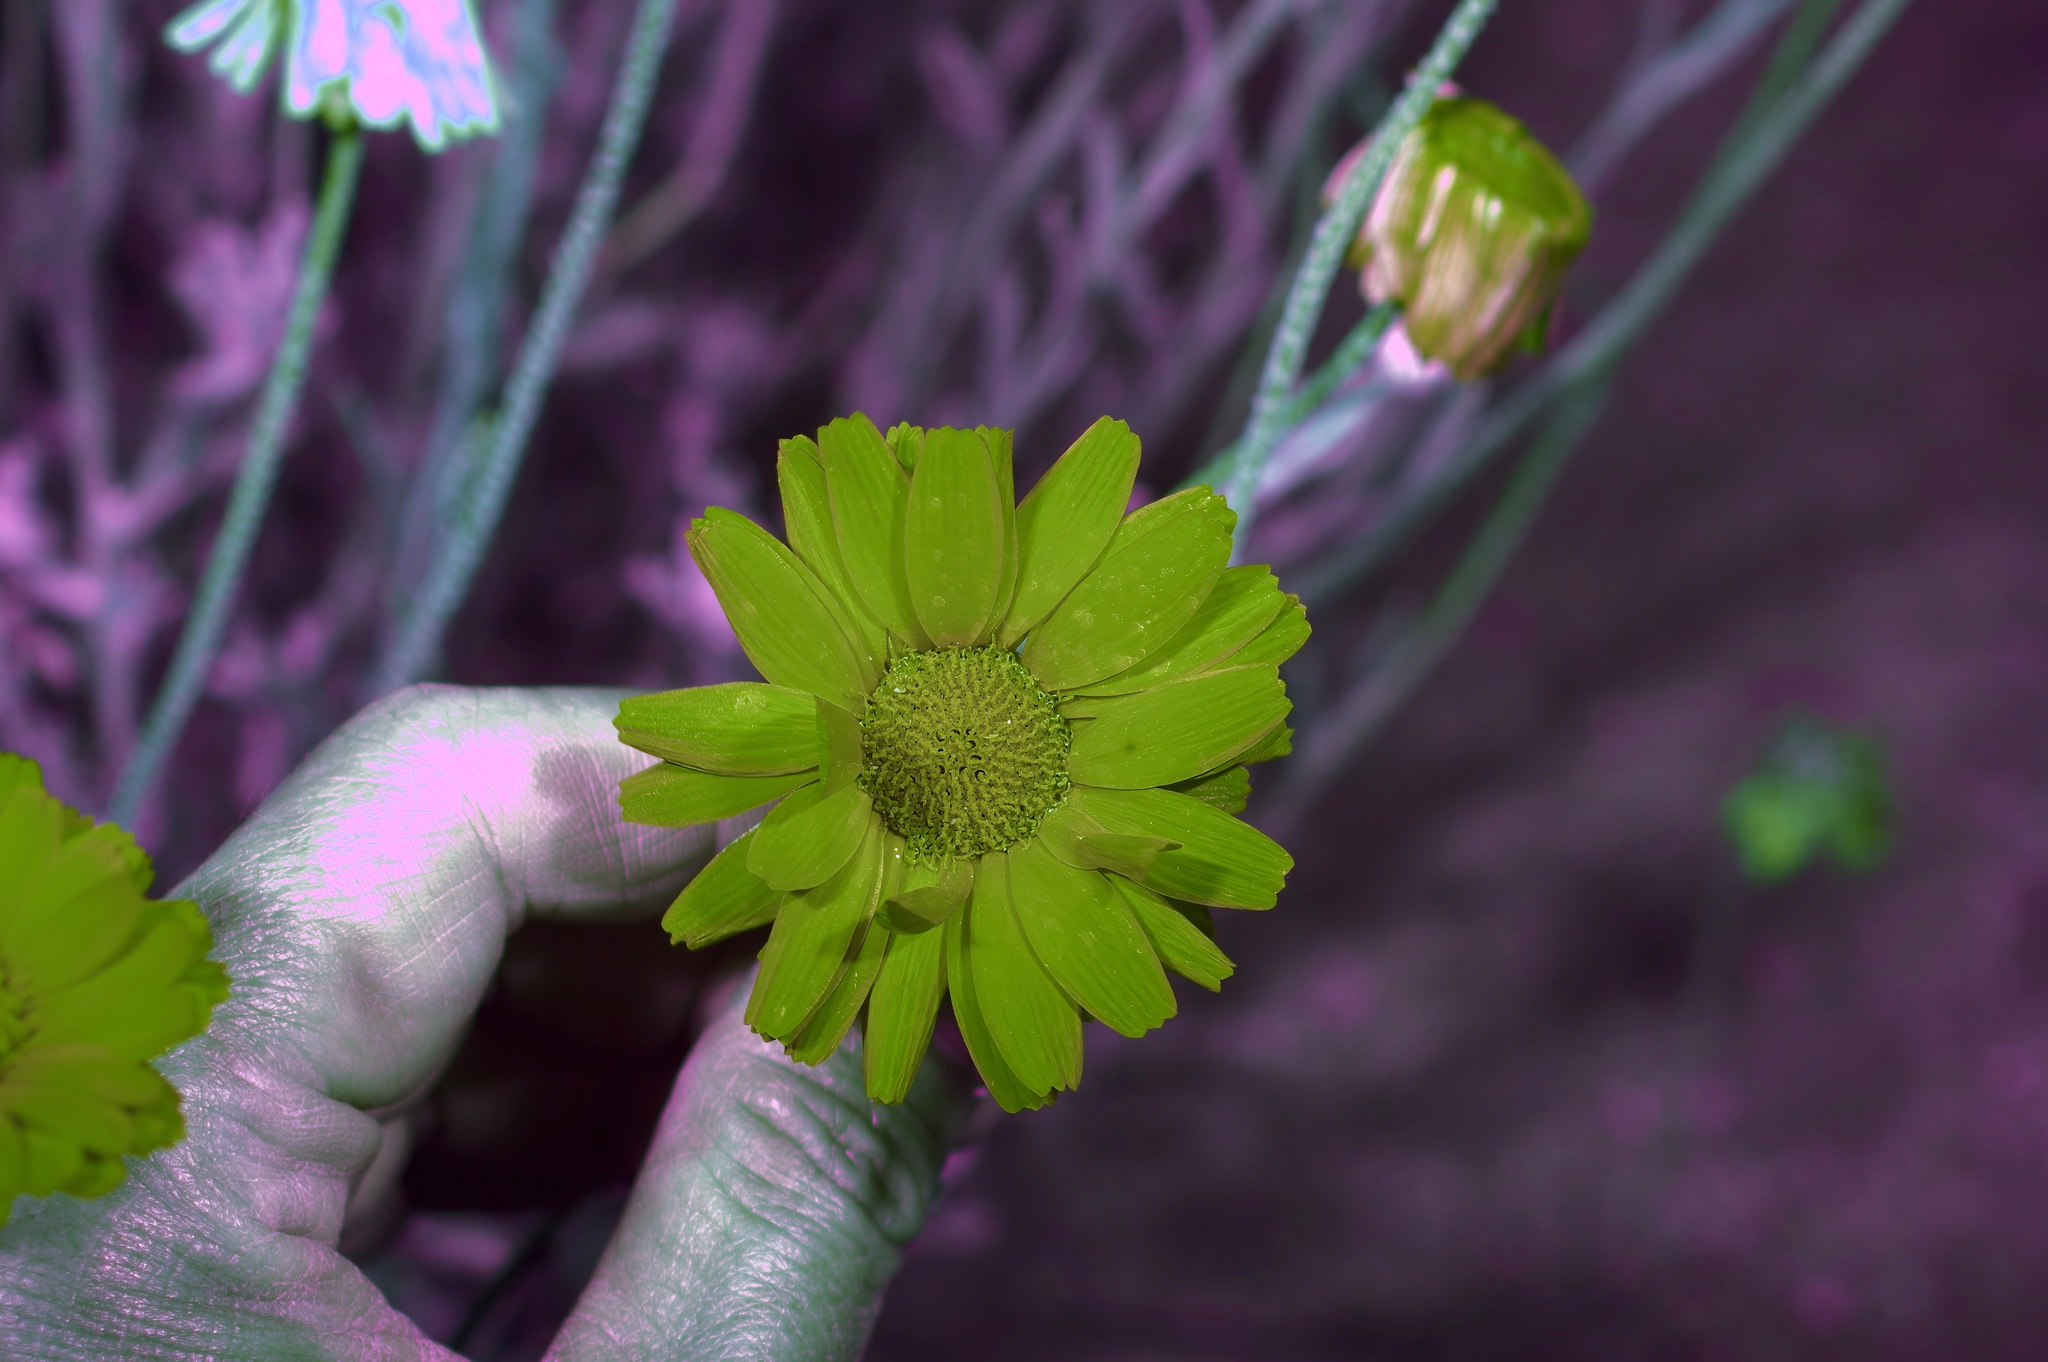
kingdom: Plantae
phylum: Tracheophyta
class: Magnoliopsida
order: Asterales
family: Asteraceae
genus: Baileya
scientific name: Baileya multiradiata
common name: Desert-marigold
